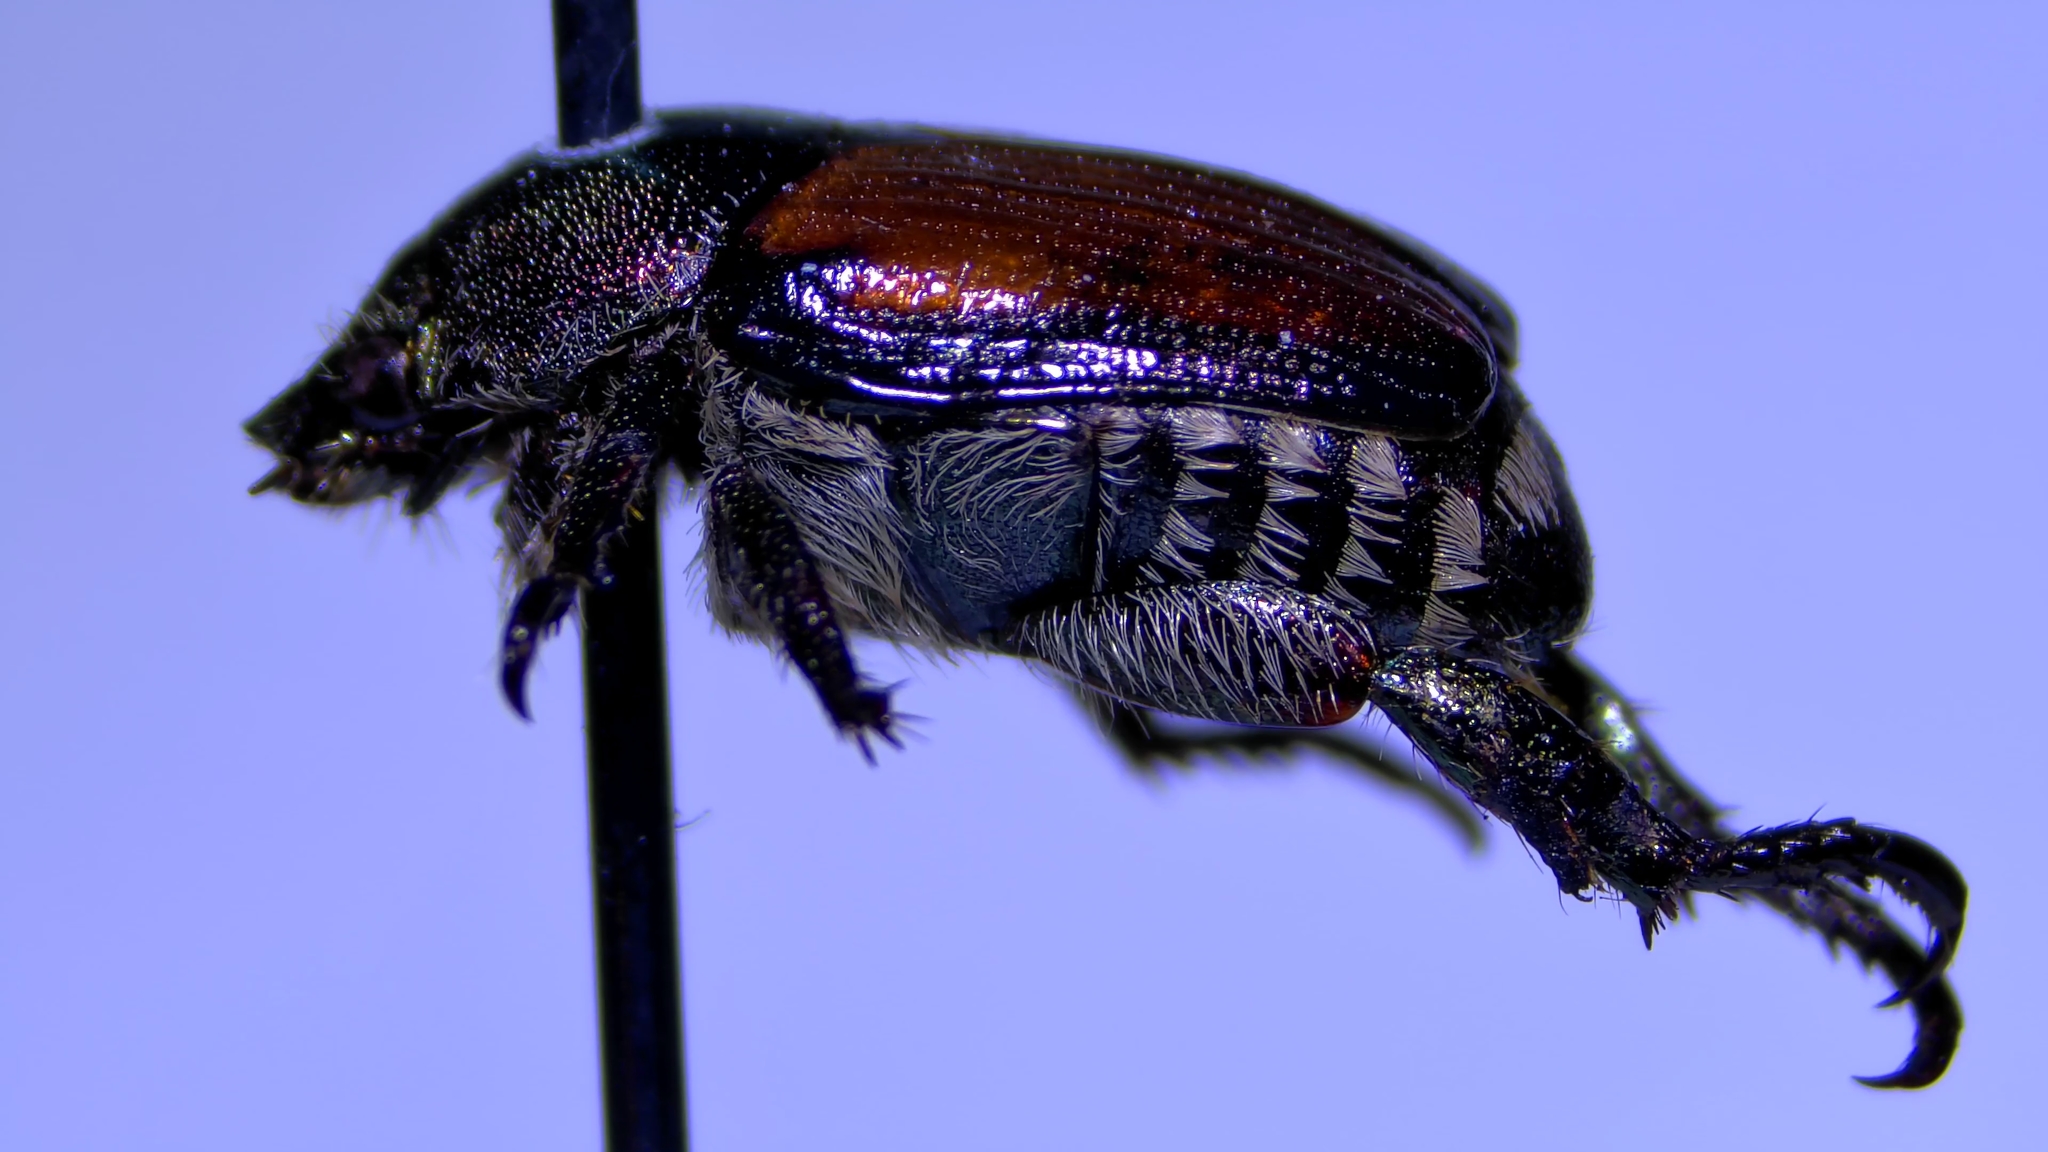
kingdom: Animalia
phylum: Arthropoda
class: Insecta
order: Coleoptera
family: Scarabaeidae
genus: Popillia
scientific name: Popillia japonica
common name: Japanese beetle
